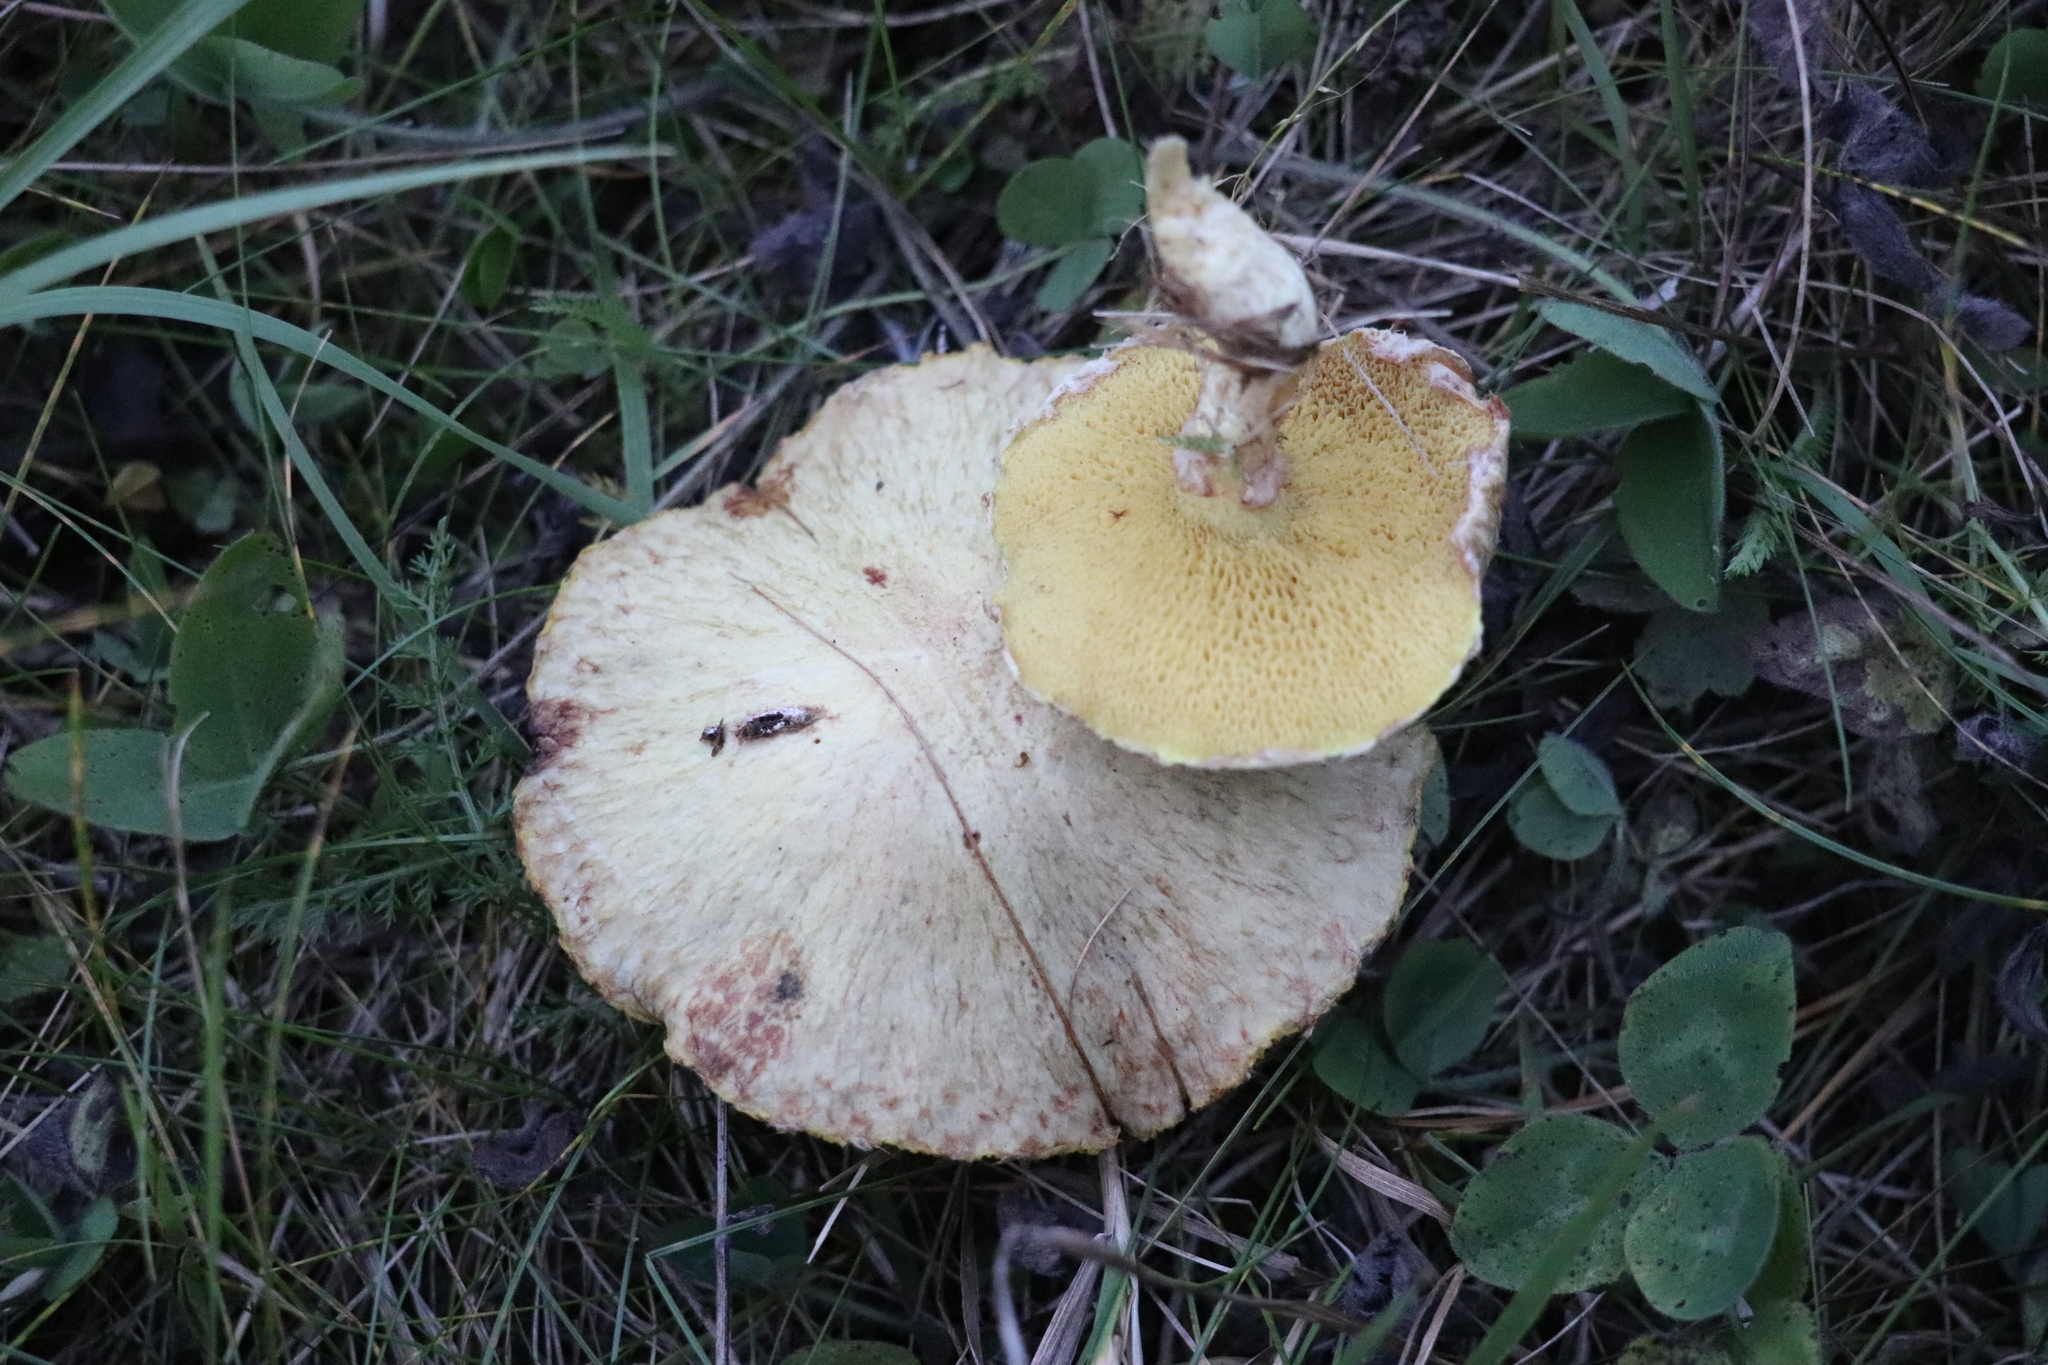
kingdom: Fungi
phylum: Basidiomycota
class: Agaricomycetes
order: Boletales
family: Suillaceae
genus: Suillus
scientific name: Suillus americanus
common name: Chicken fat mushroom
